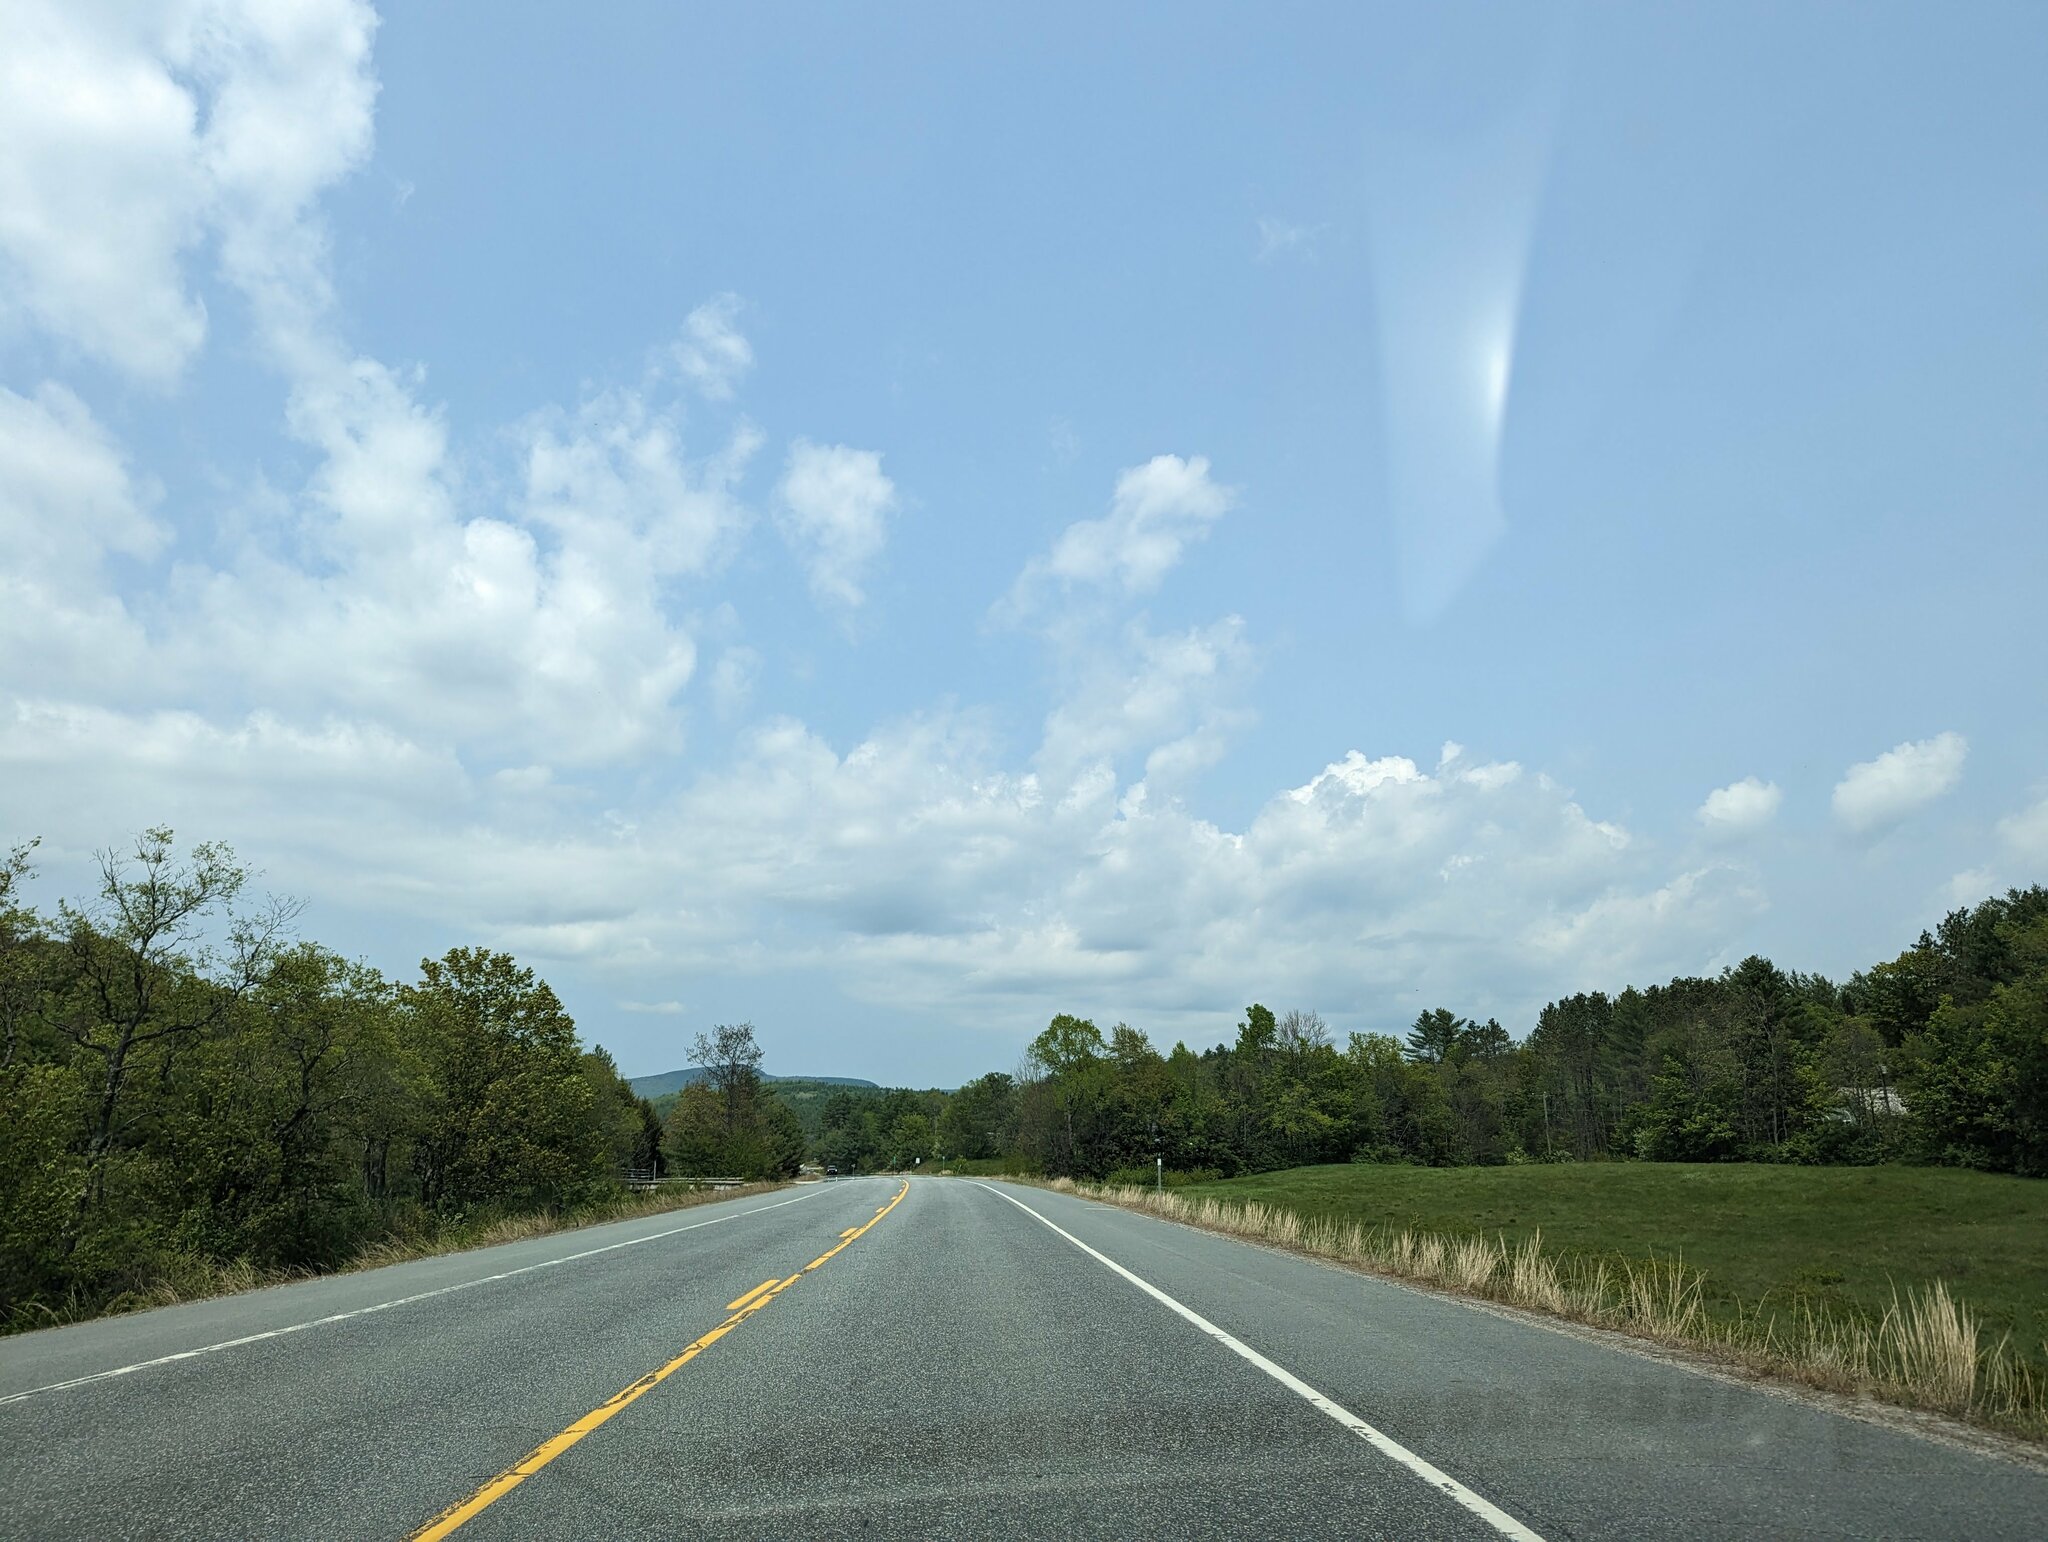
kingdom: Plantae
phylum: Tracheophyta
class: Pinopsida
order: Pinales
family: Pinaceae
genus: Pinus
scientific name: Pinus strobus
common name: Weymouth pine
